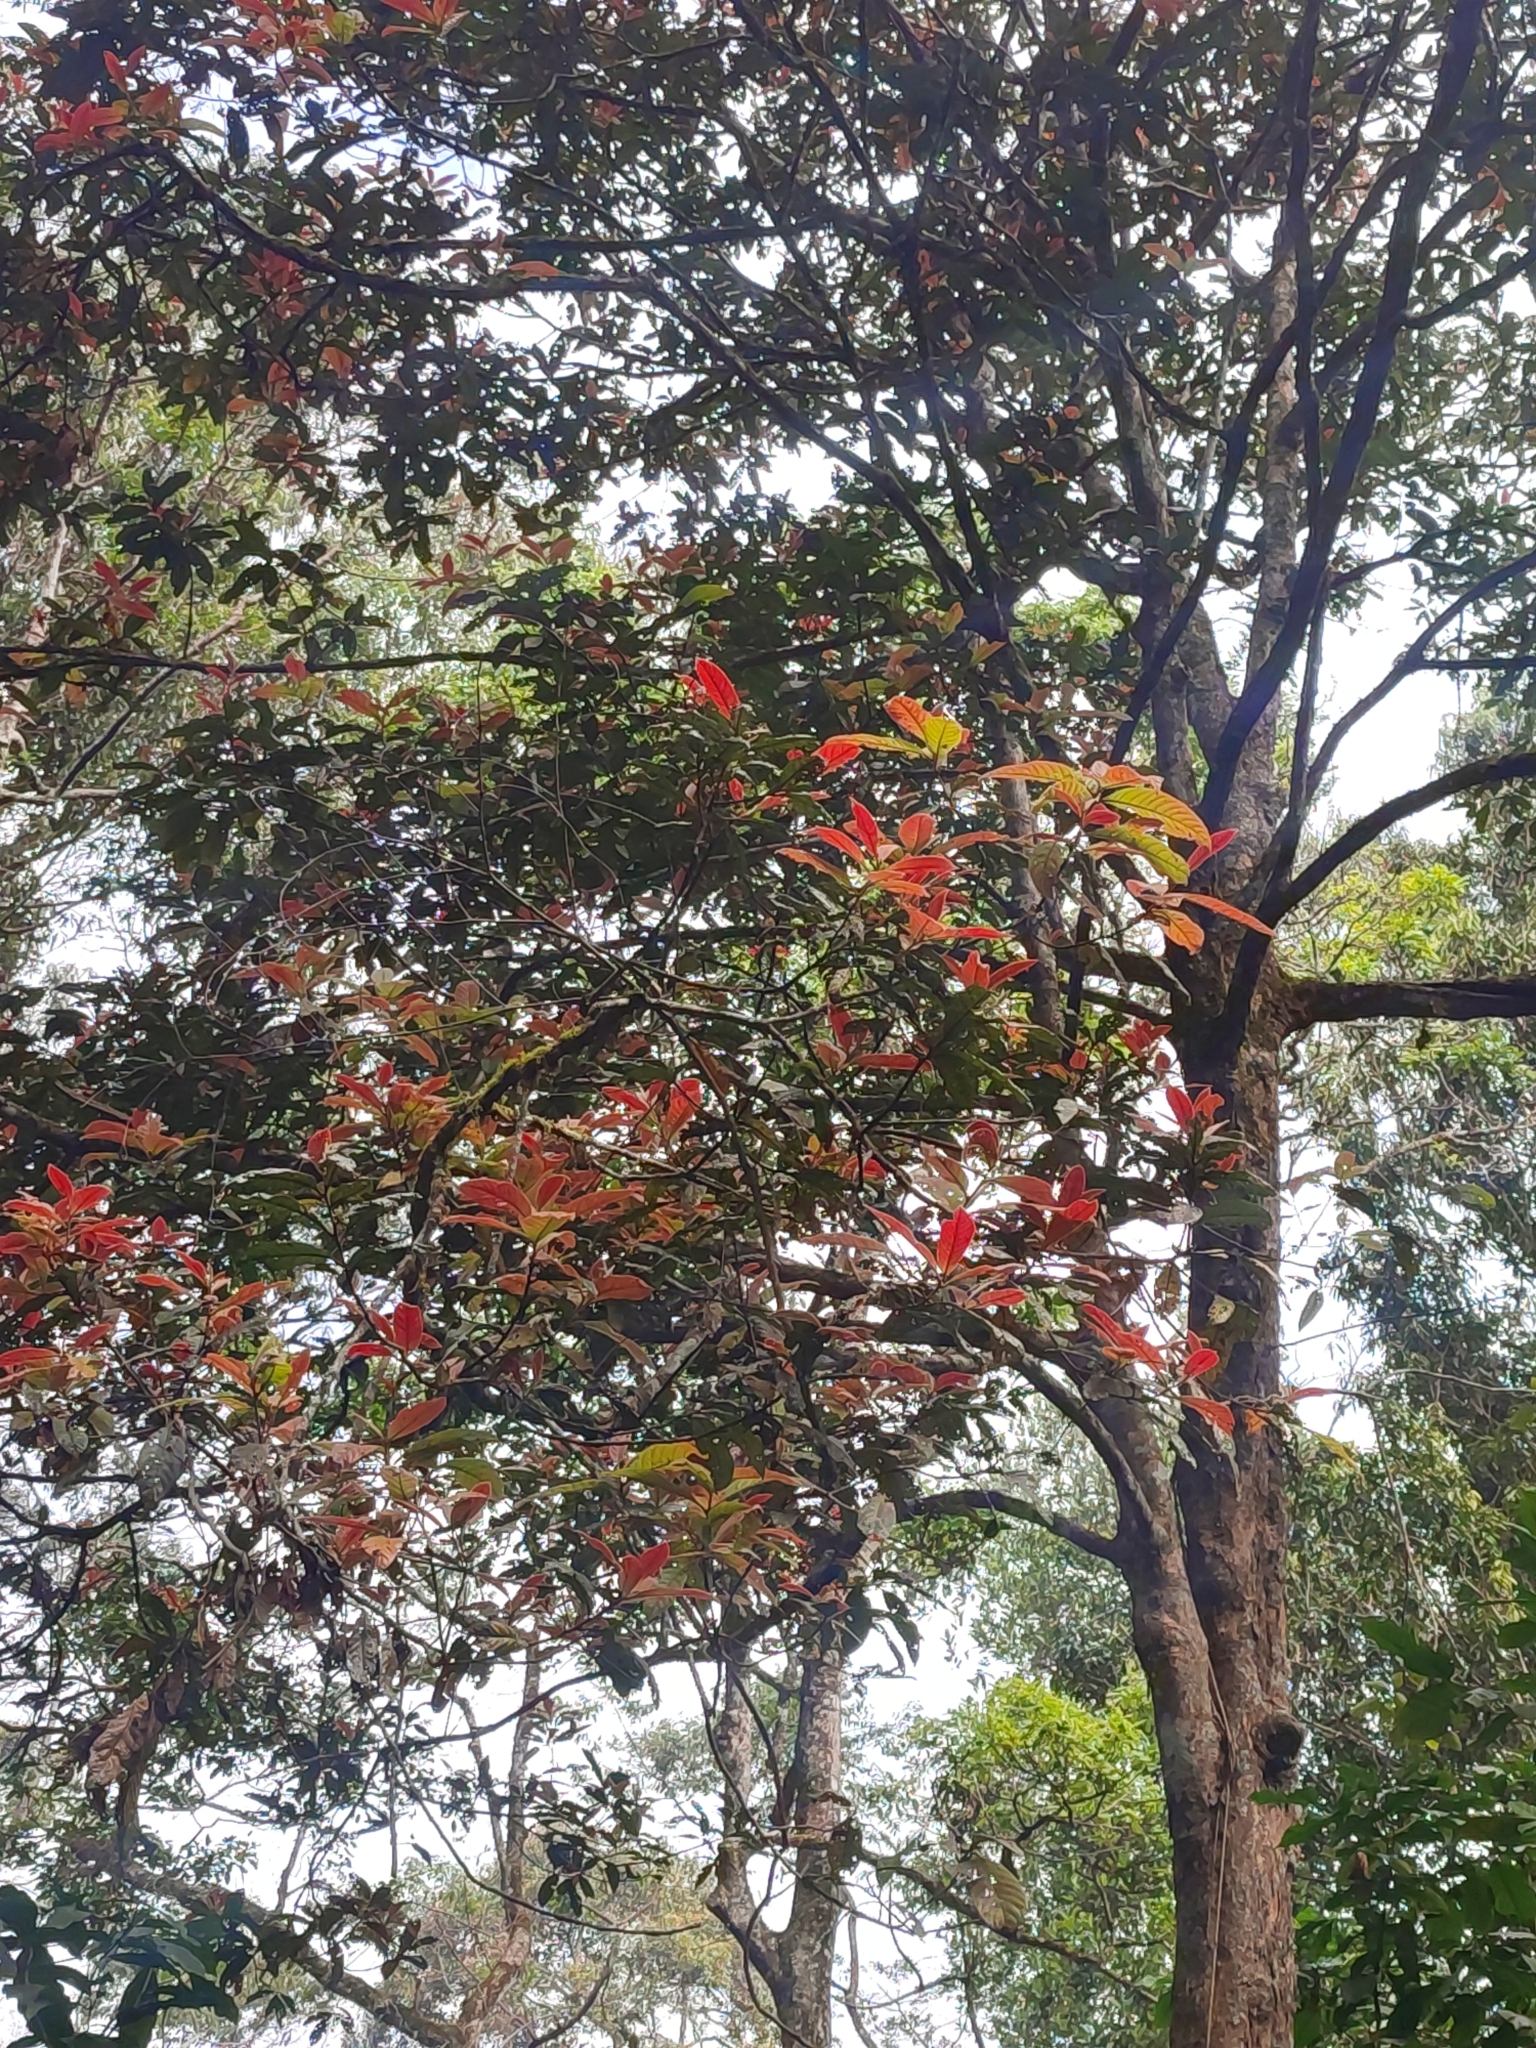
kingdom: Plantae
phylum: Tracheophyta
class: Magnoliopsida
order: Laurales
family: Lauraceae
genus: Litsea
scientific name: Litsea floribunda
